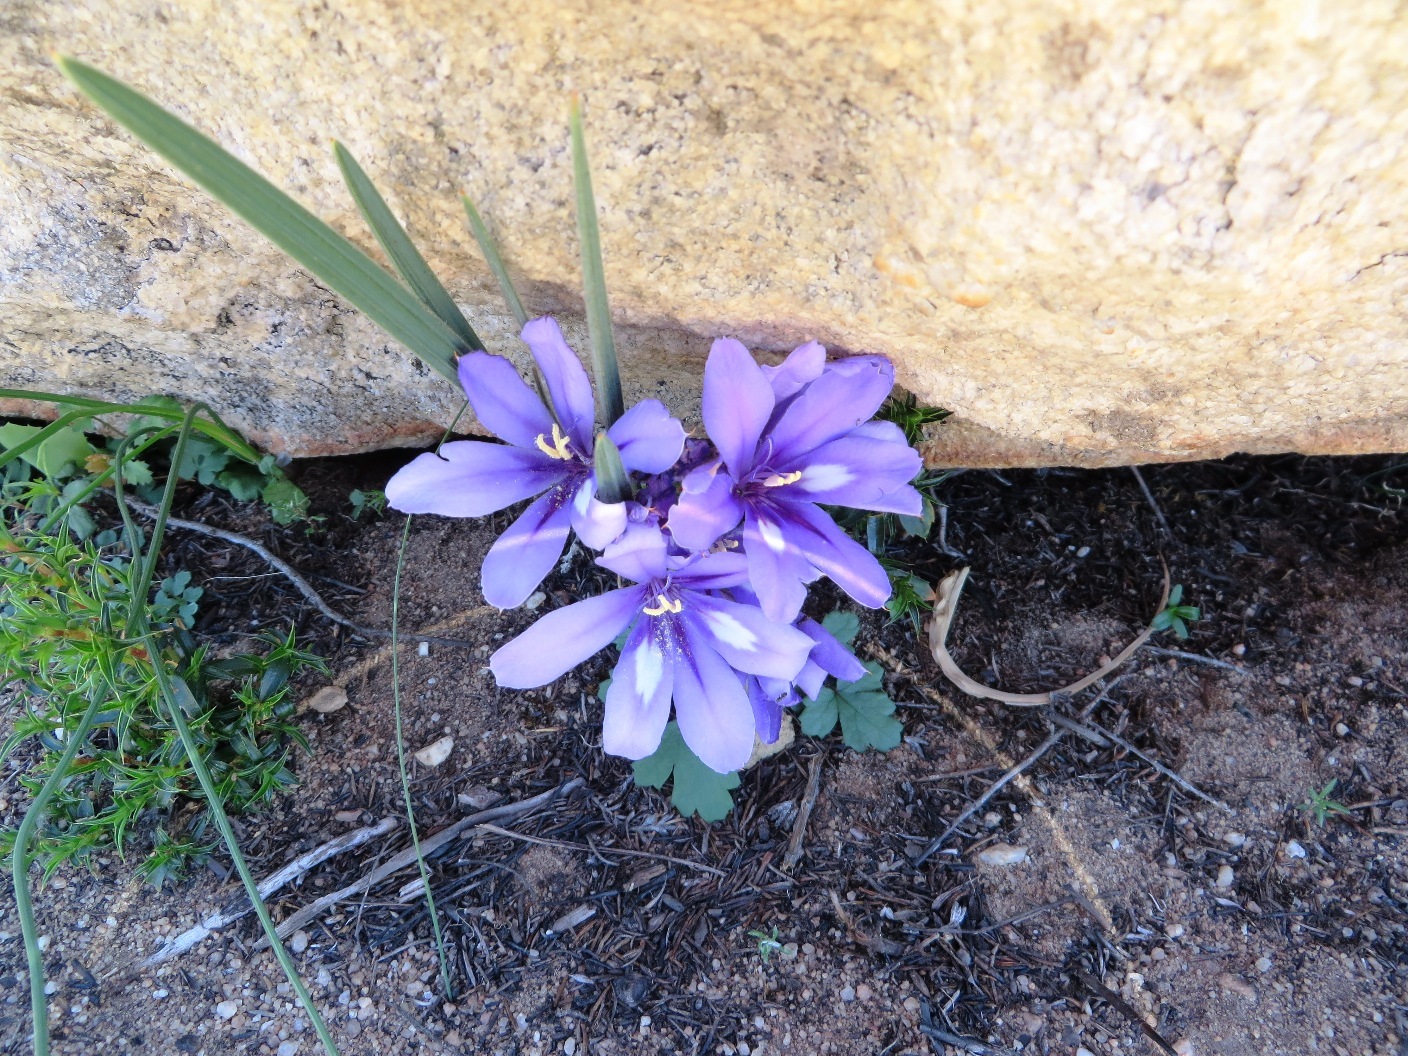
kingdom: Plantae
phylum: Tracheophyta
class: Liliopsida
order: Asparagales
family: Iridaceae
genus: Babiana
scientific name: Babiana sambucina
